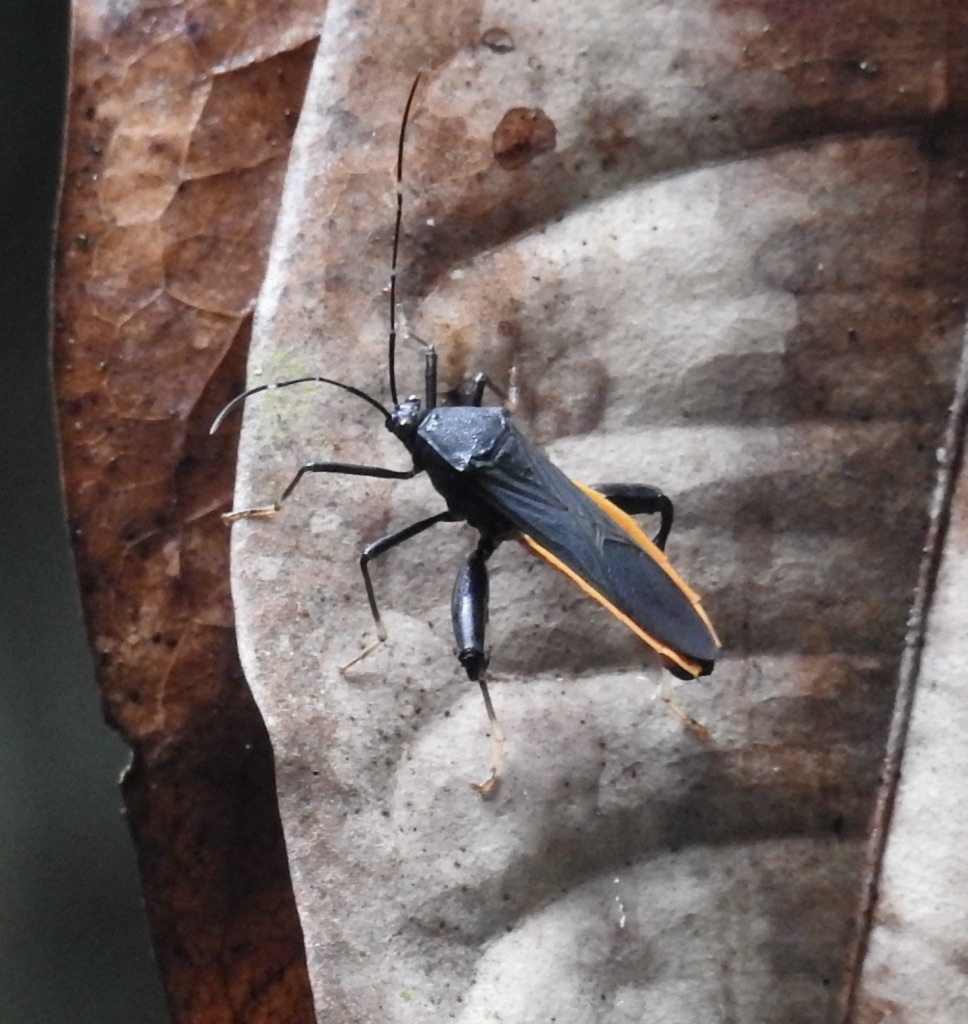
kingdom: Animalia
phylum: Arthropoda
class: Insecta
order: Hemiptera
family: Coreidae
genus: Nematopus
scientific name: Nematopus indus
